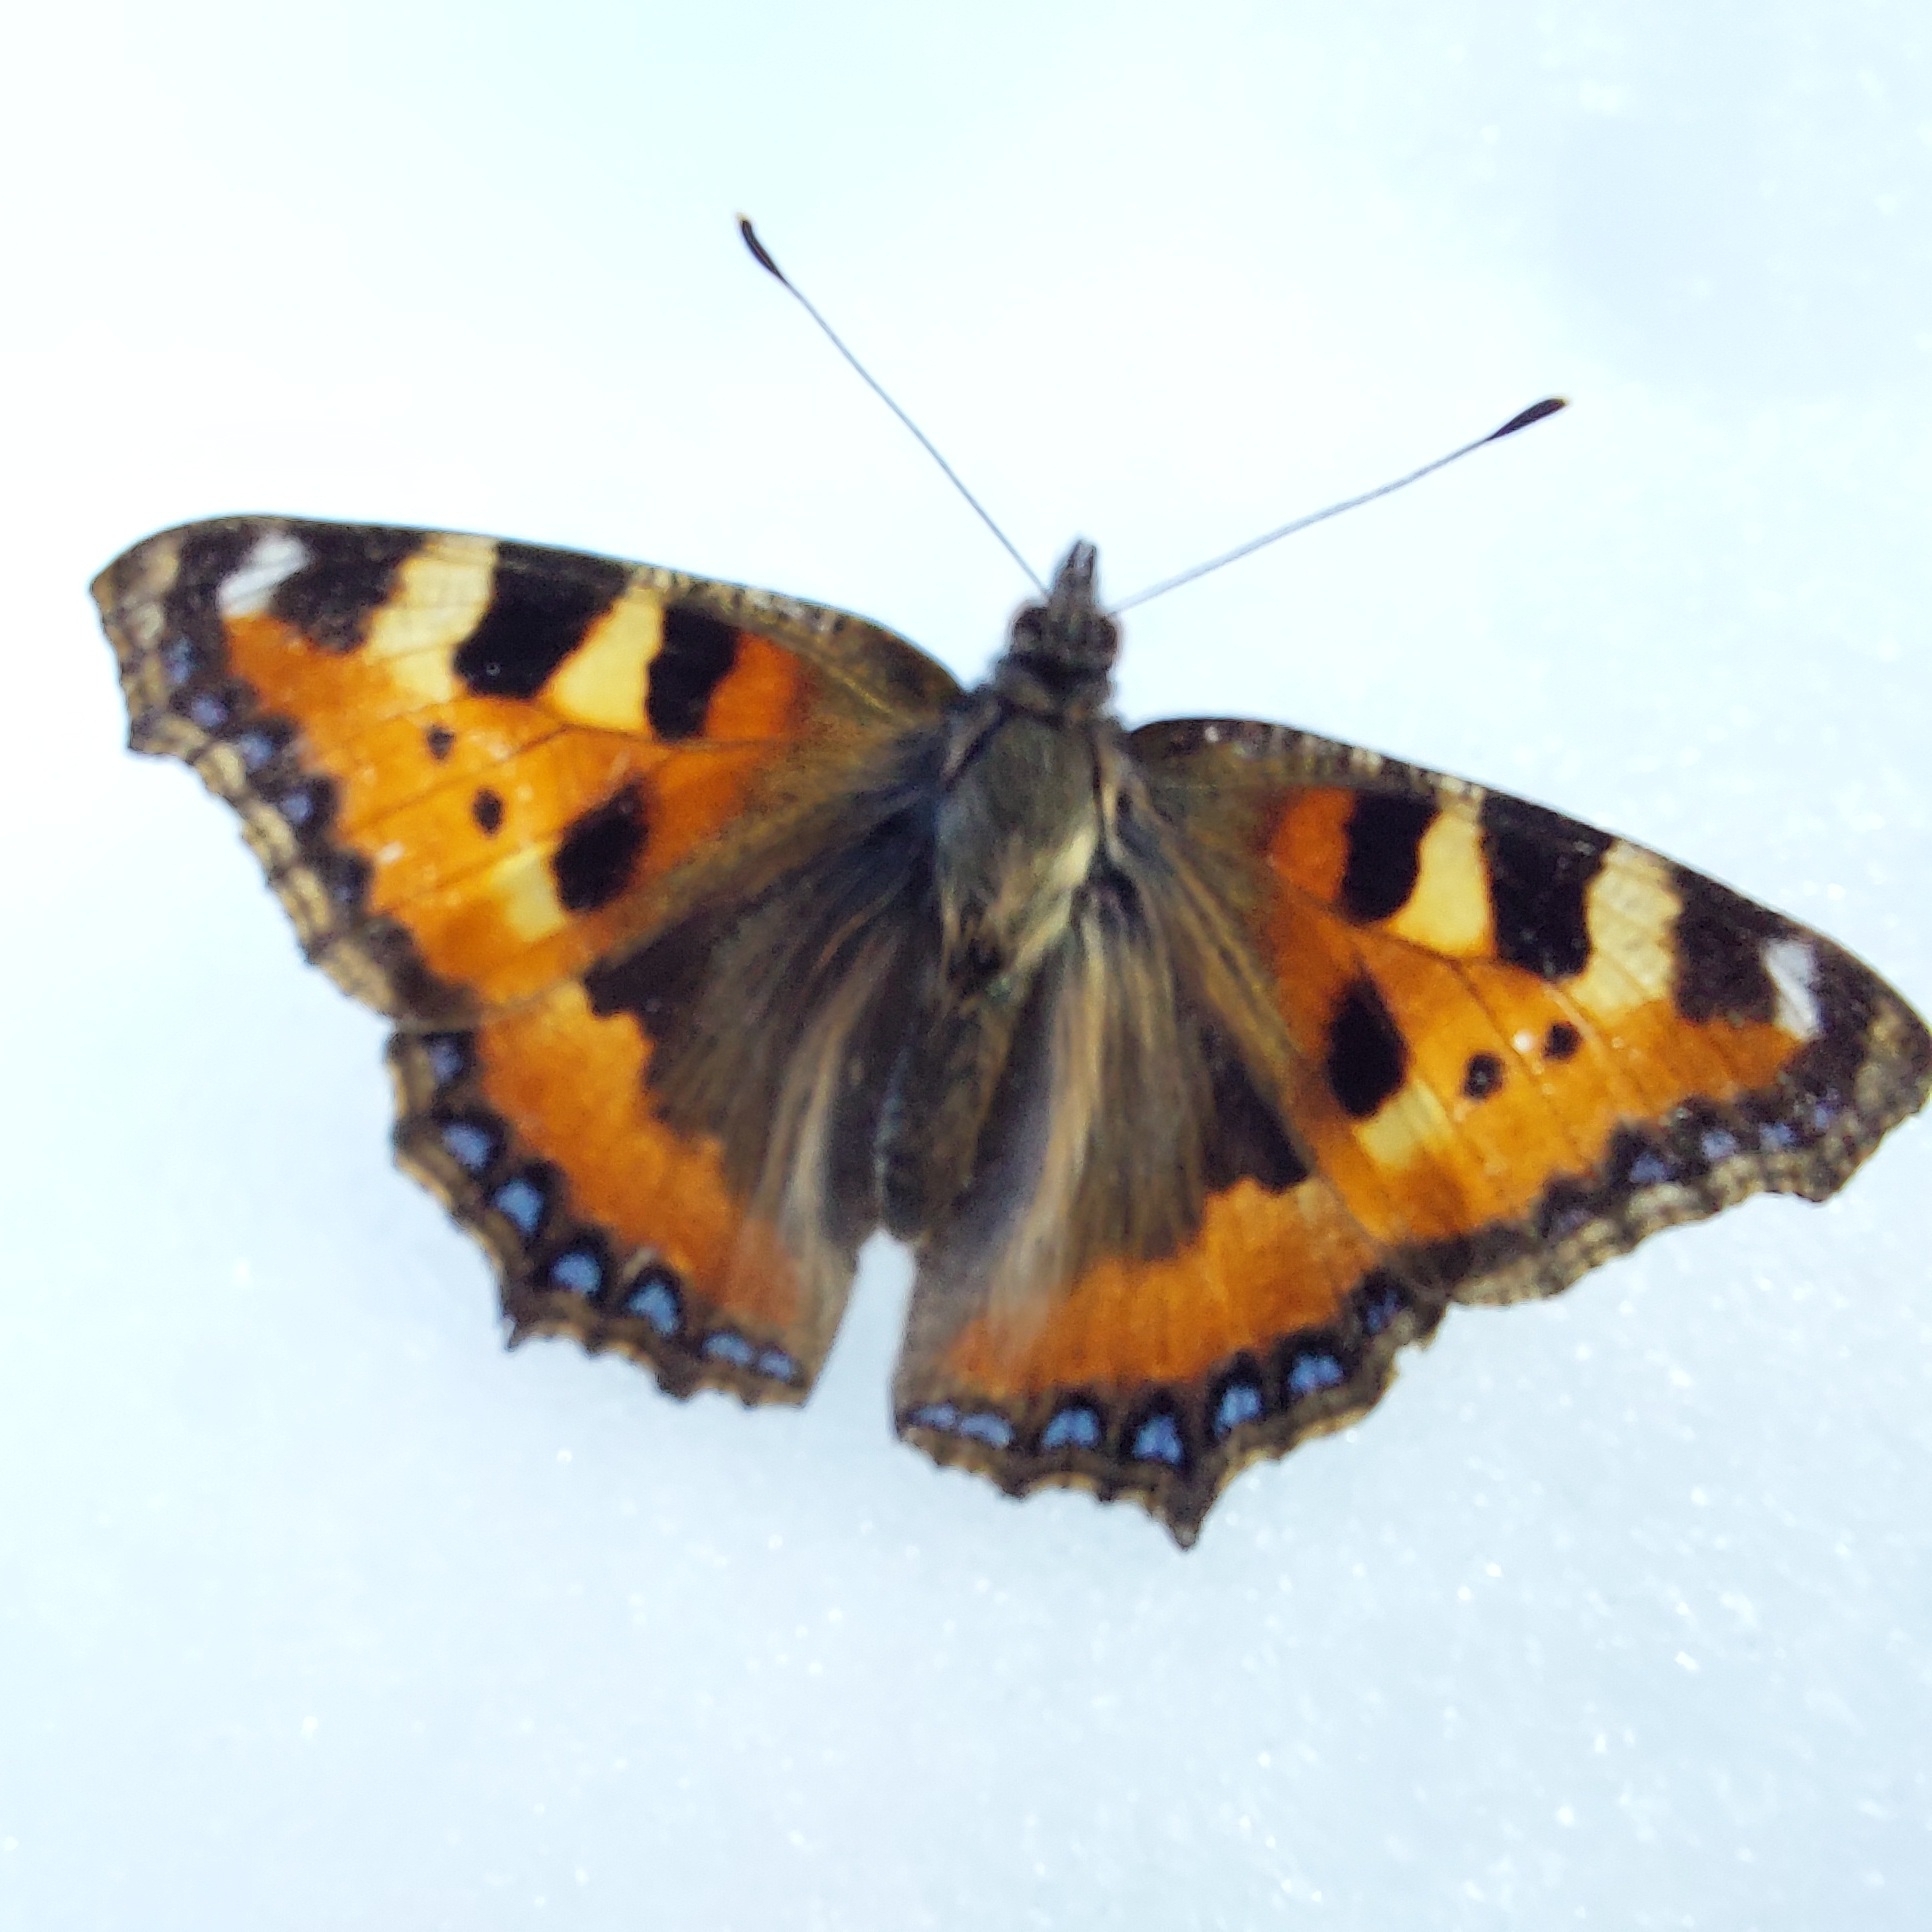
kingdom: Animalia
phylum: Arthropoda
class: Insecta
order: Lepidoptera
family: Nymphalidae
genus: Aglais
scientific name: Aglais urticae
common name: Small tortoiseshell
